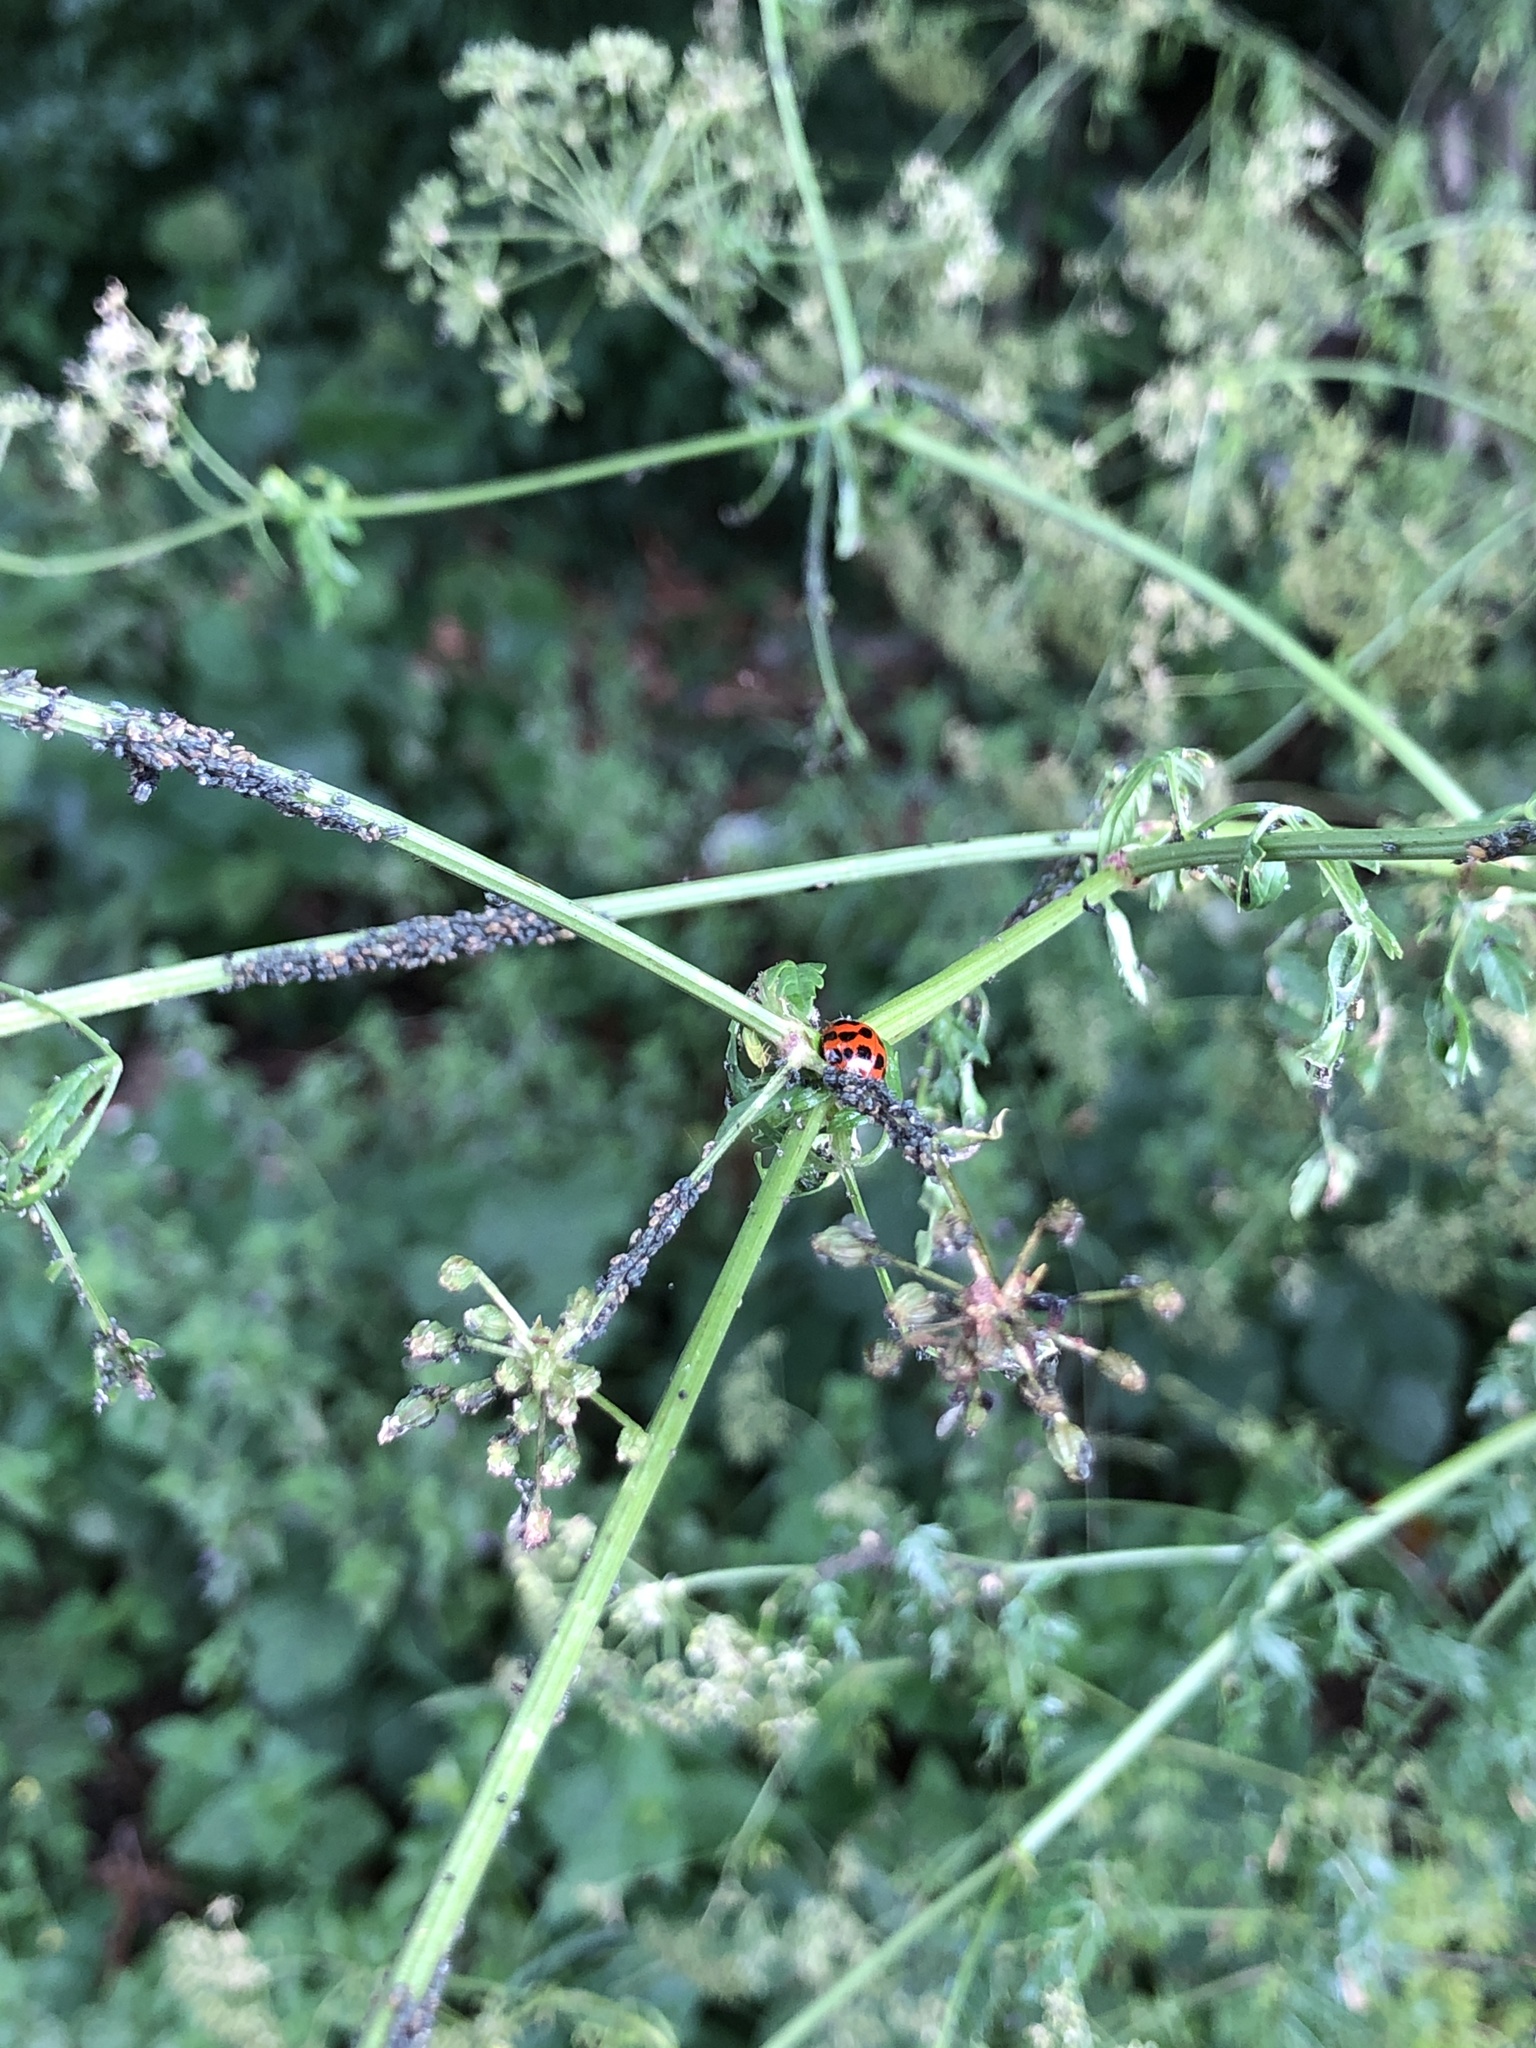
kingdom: Animalia
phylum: Arthropoda
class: Insecta
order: Coleoptera
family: Coccinellidae
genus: Harmonia
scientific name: Harmonia axyridis
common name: Harlequin ladybird
